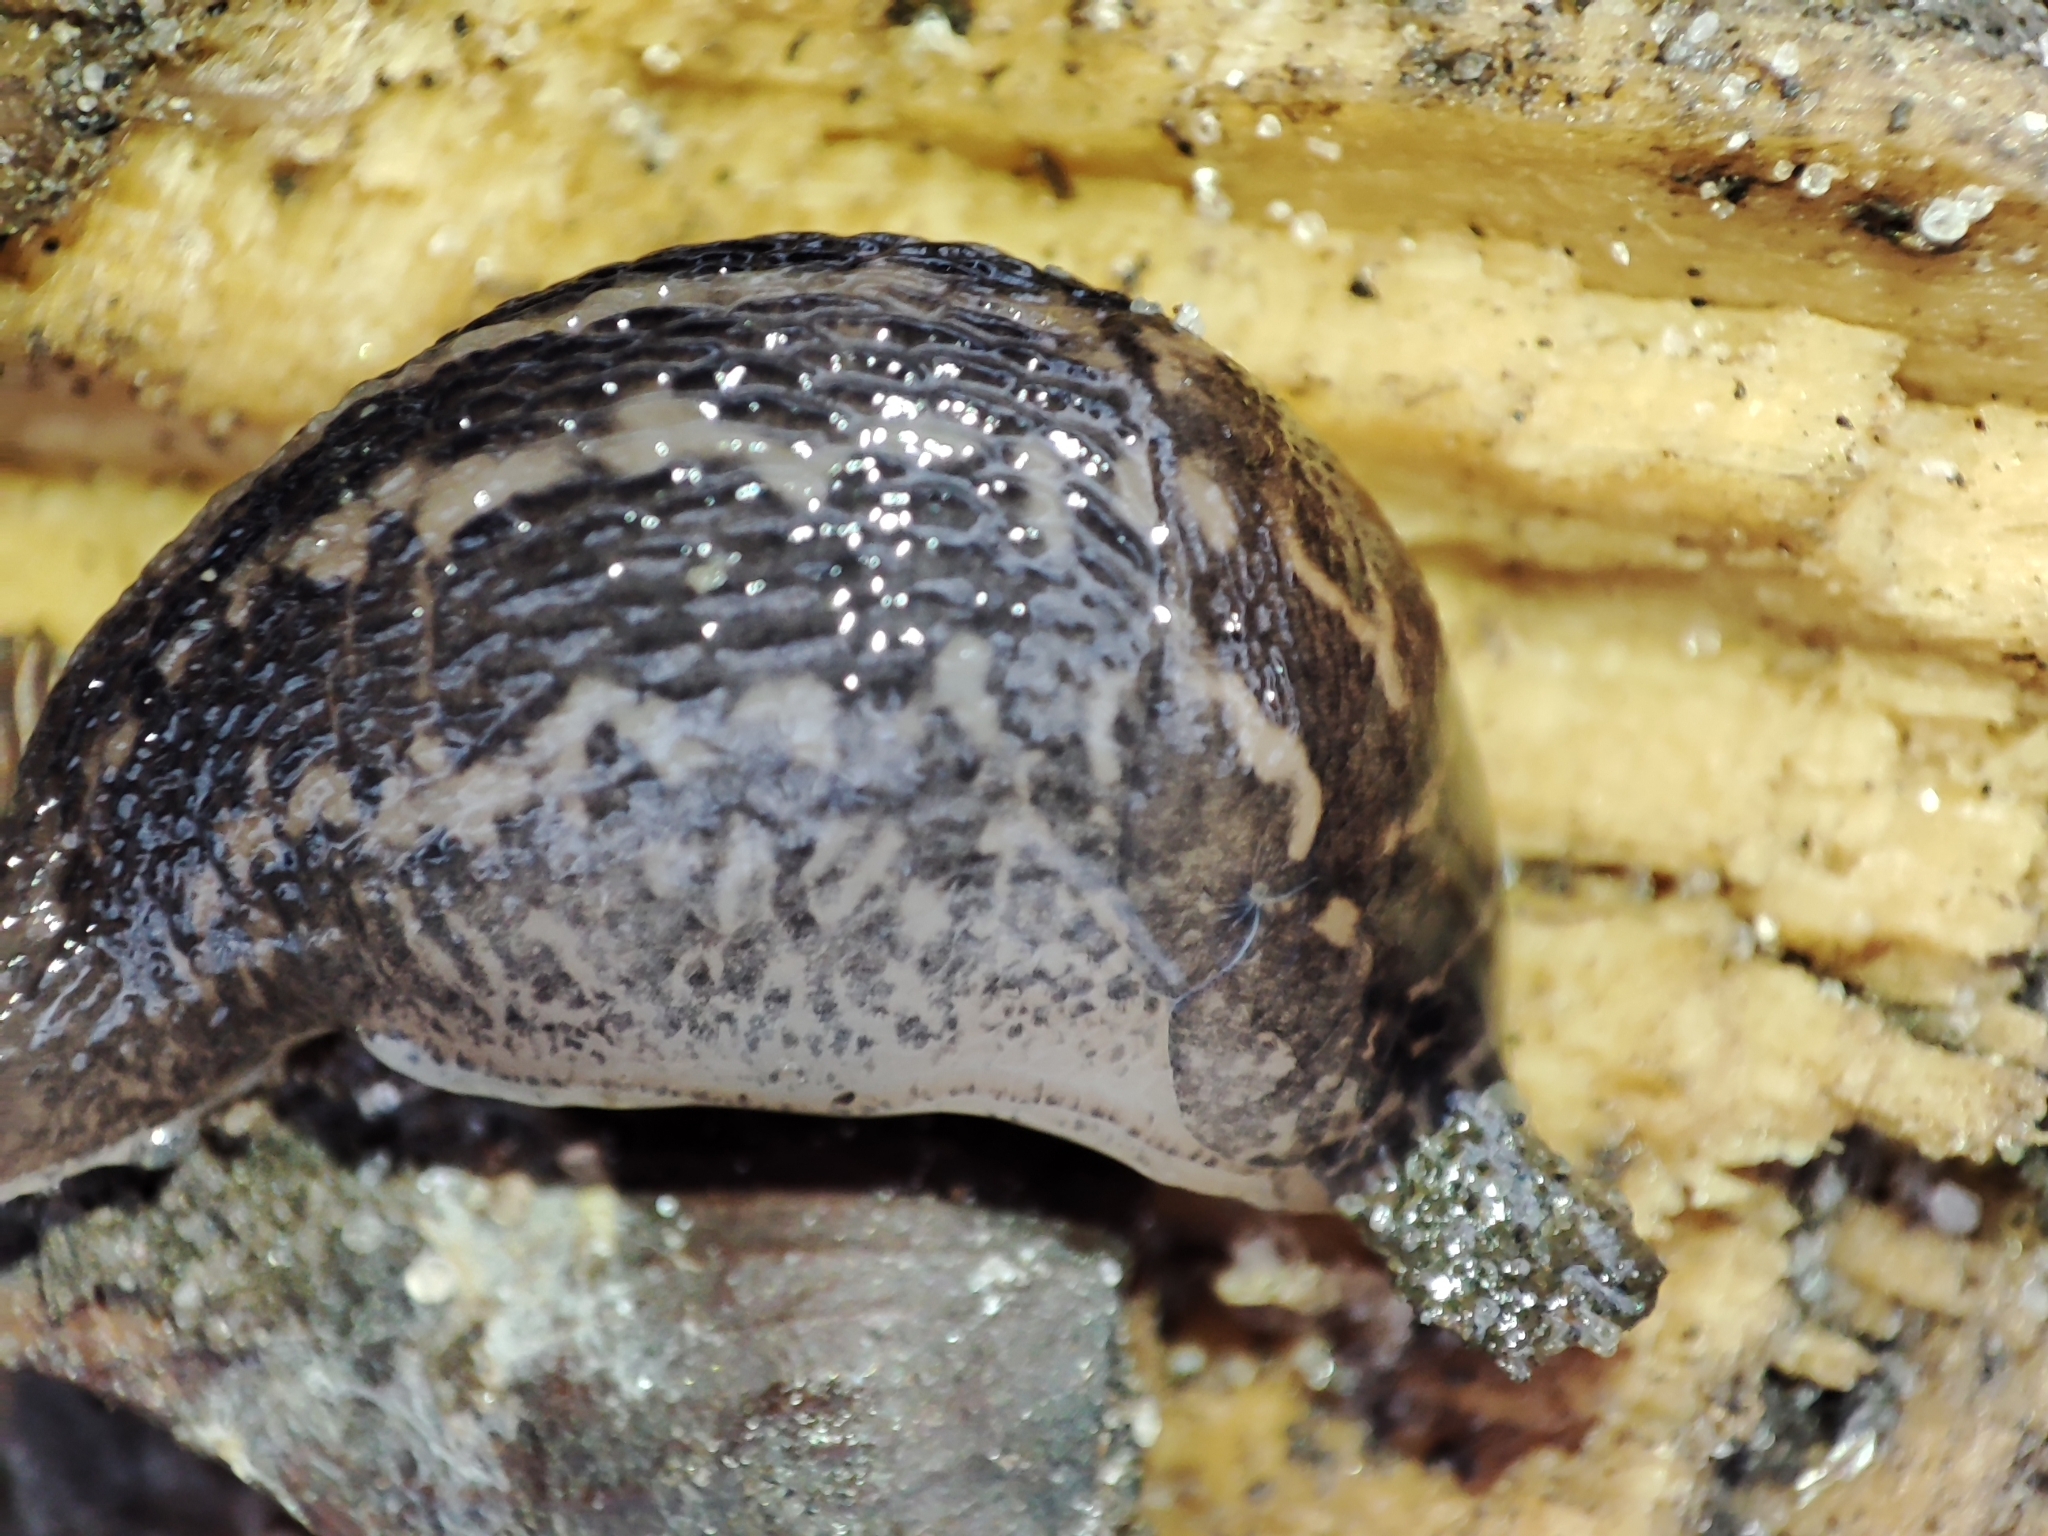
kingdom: Animalia
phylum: Mollusca
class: Gastropoda
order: Stylommatophora
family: Limacidae
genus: Limax
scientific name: Limax maximus
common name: Great grey slug
